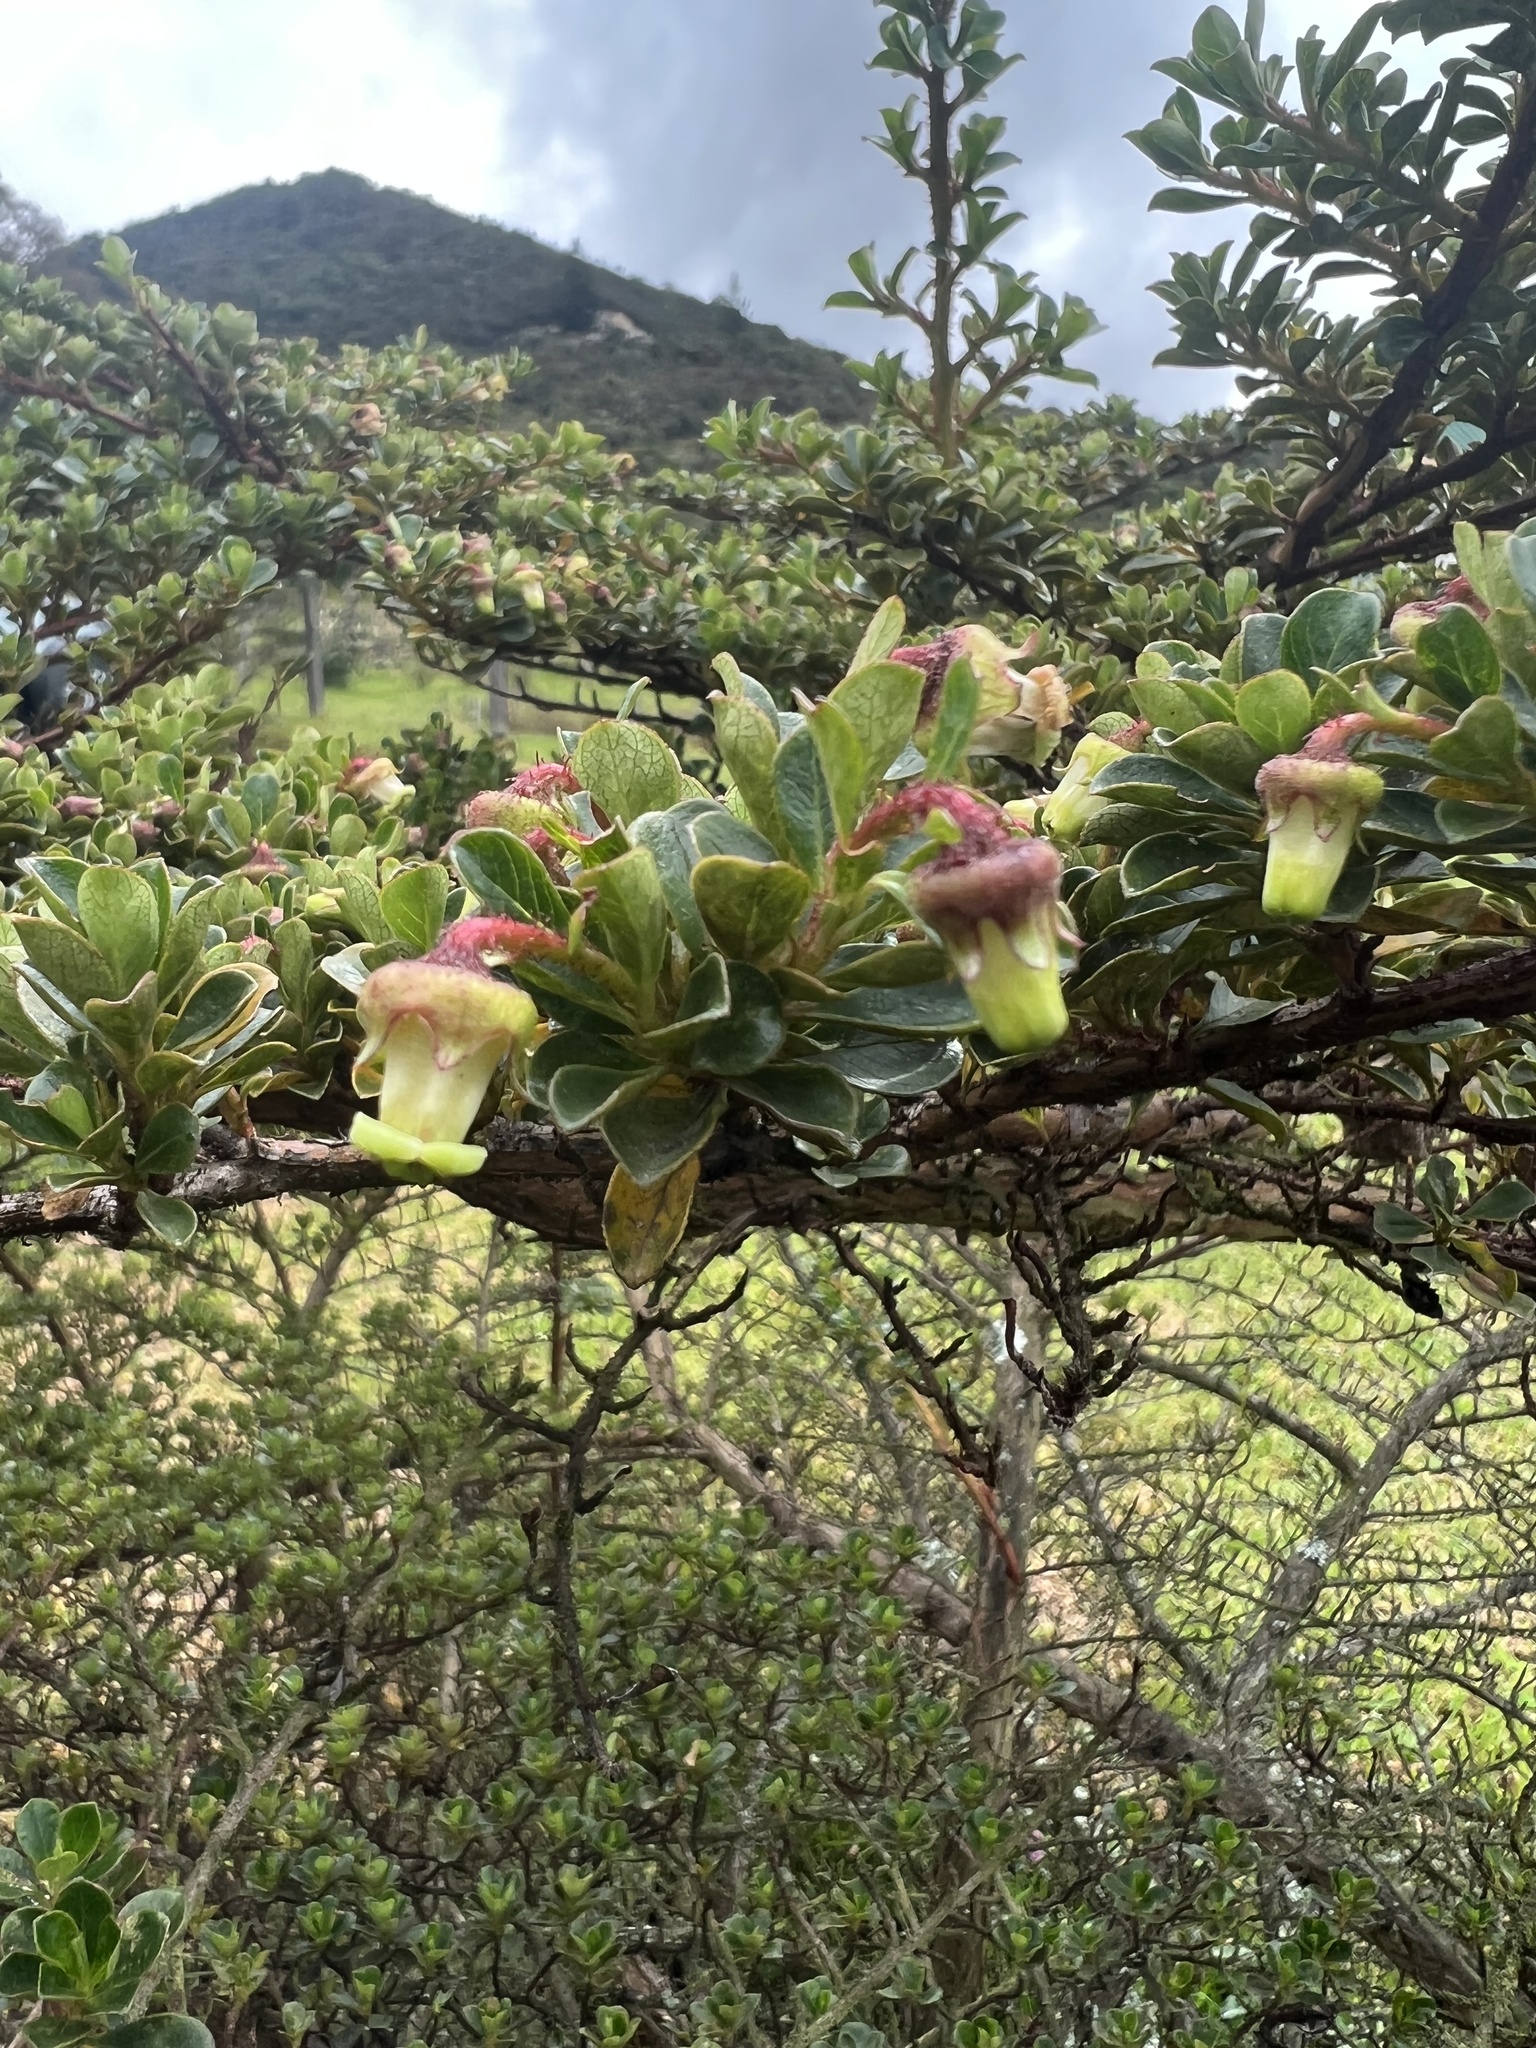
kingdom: Plantae
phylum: Tracheophyta
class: Magnoliopsida
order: Escalloniales
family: Escalloniaceae
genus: Escallonia
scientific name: Escallonia myrtilloides
